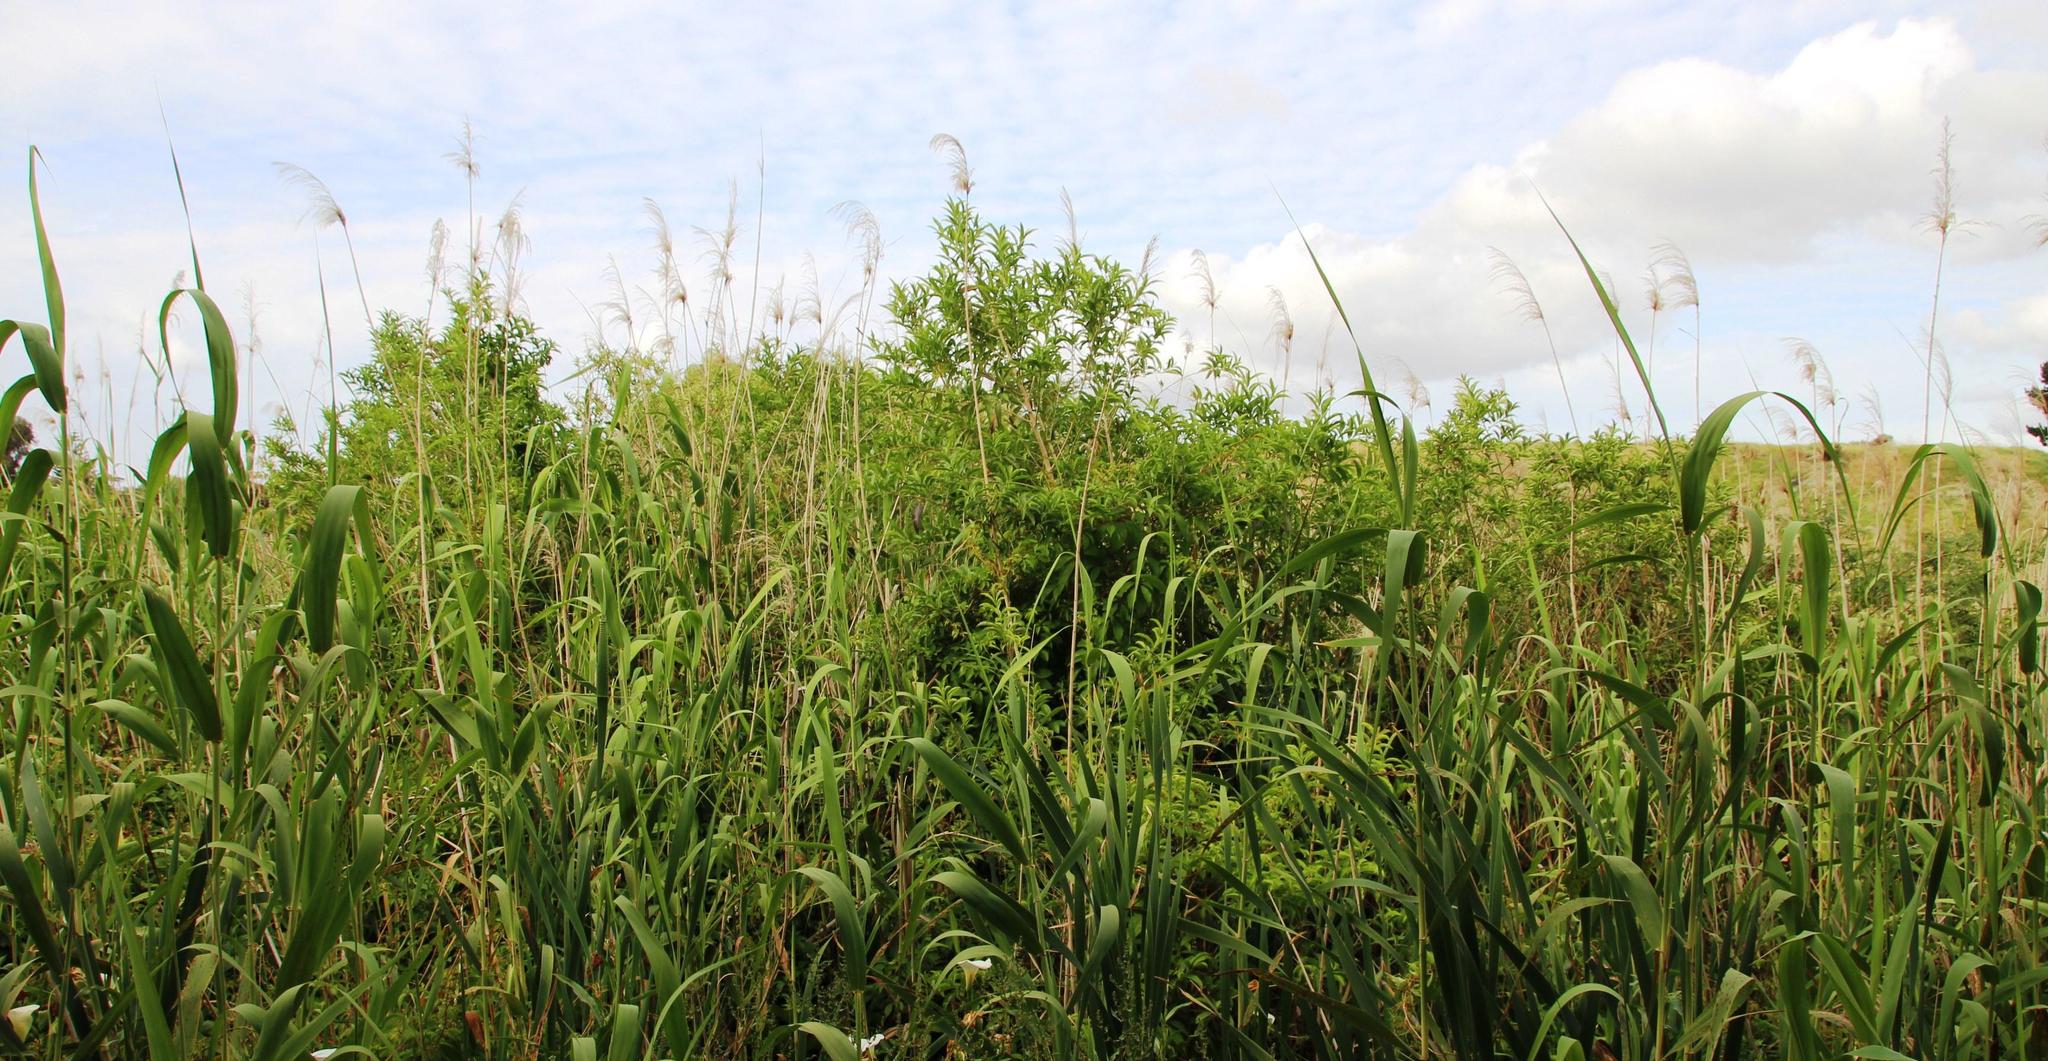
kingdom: Plantae
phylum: Tracheophyta
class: Magnoliopsida
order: Solanales
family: Solanaceae
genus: Cestrum
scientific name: Cestrum laevigatum
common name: Inkberry
